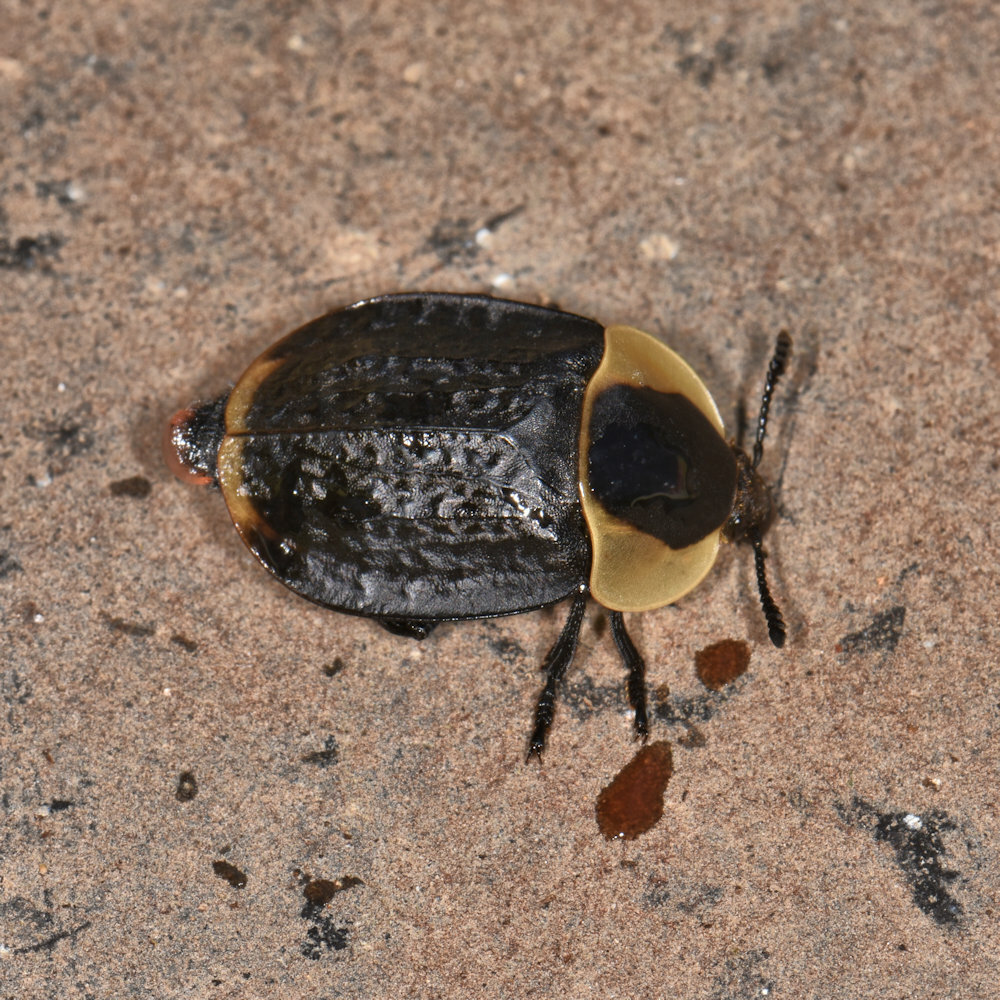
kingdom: Animalia
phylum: Arthropoda
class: Insecta
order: Coleoptera
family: Staphylinidae
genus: Necrophila
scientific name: Necrophila americana
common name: American carrion beetle
